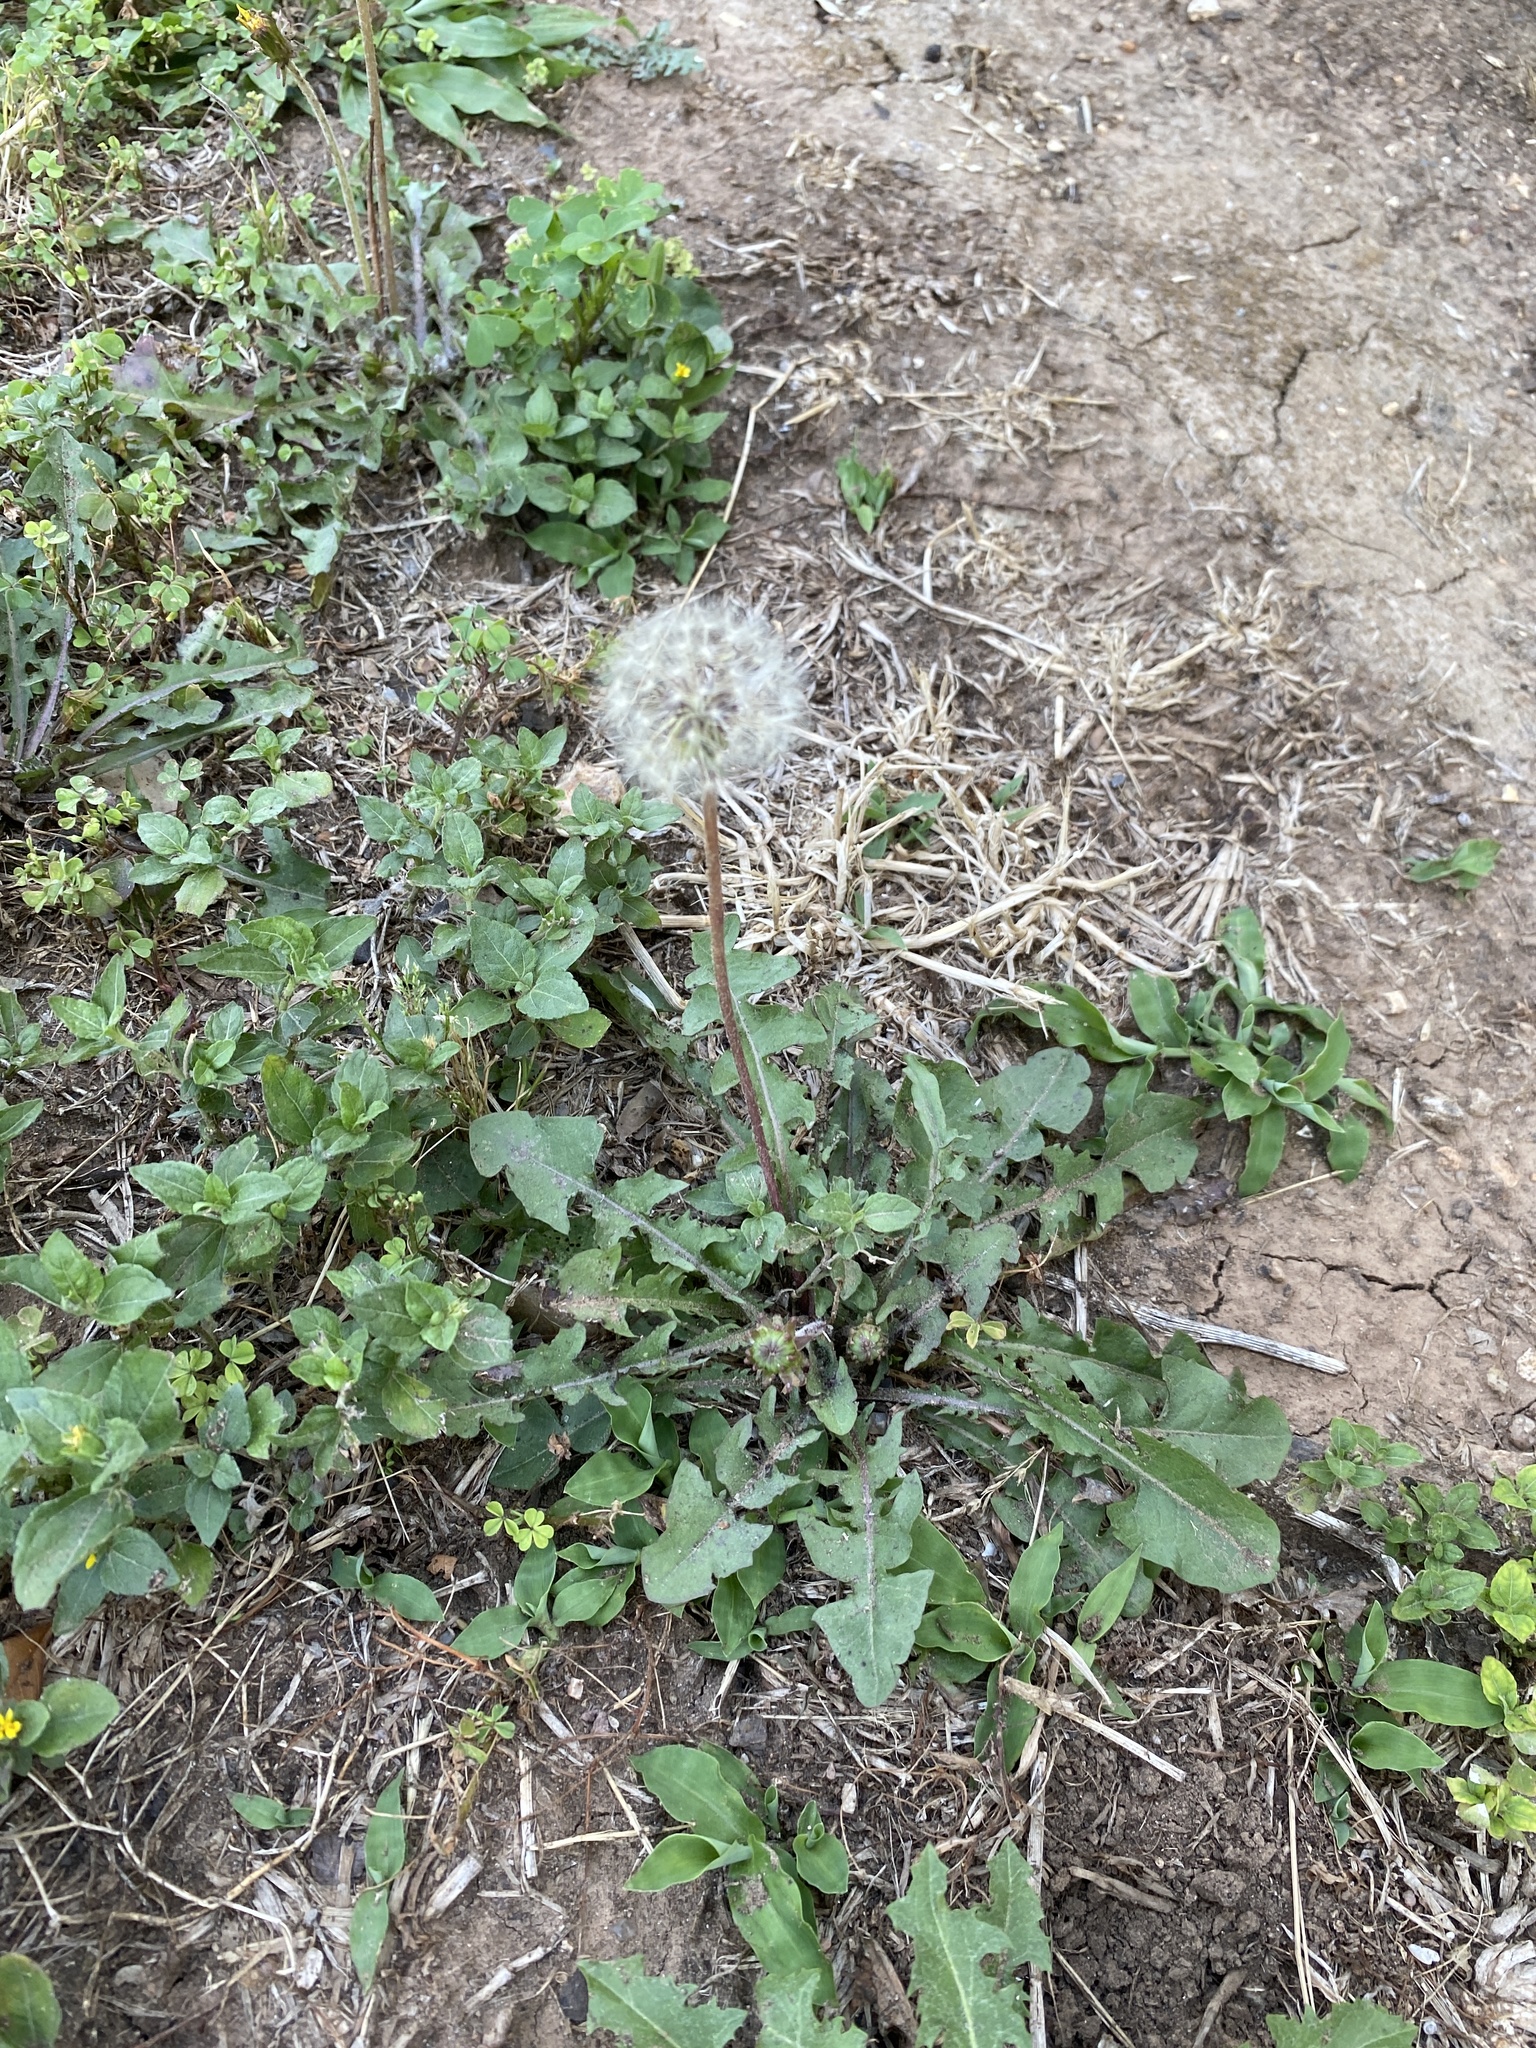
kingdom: Plantae
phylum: Tracheophyta
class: Magnoliopsida
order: Asterales
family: Asteraceae
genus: Taraxacum
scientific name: Taraxacum
